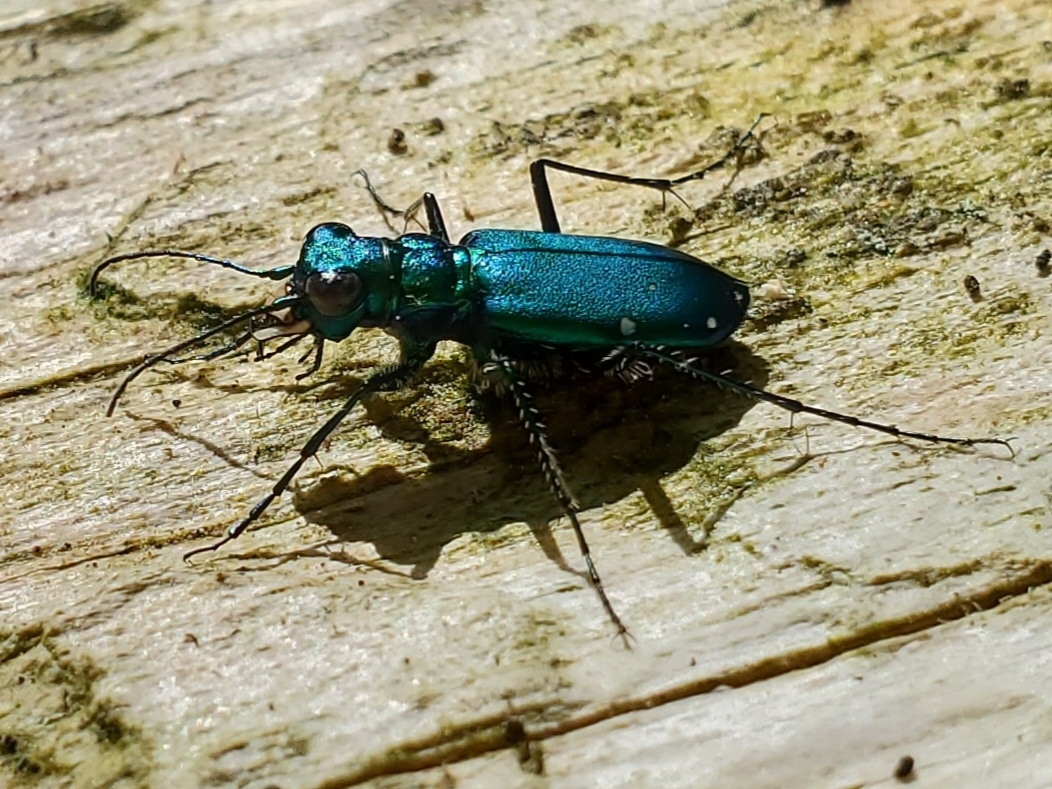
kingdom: Animalia
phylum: Arthropoda
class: Insecta
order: Coleoptera
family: Carabidae
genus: Cicindela
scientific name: Cicindela sexguttata
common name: Six-spotted tiger beetle
